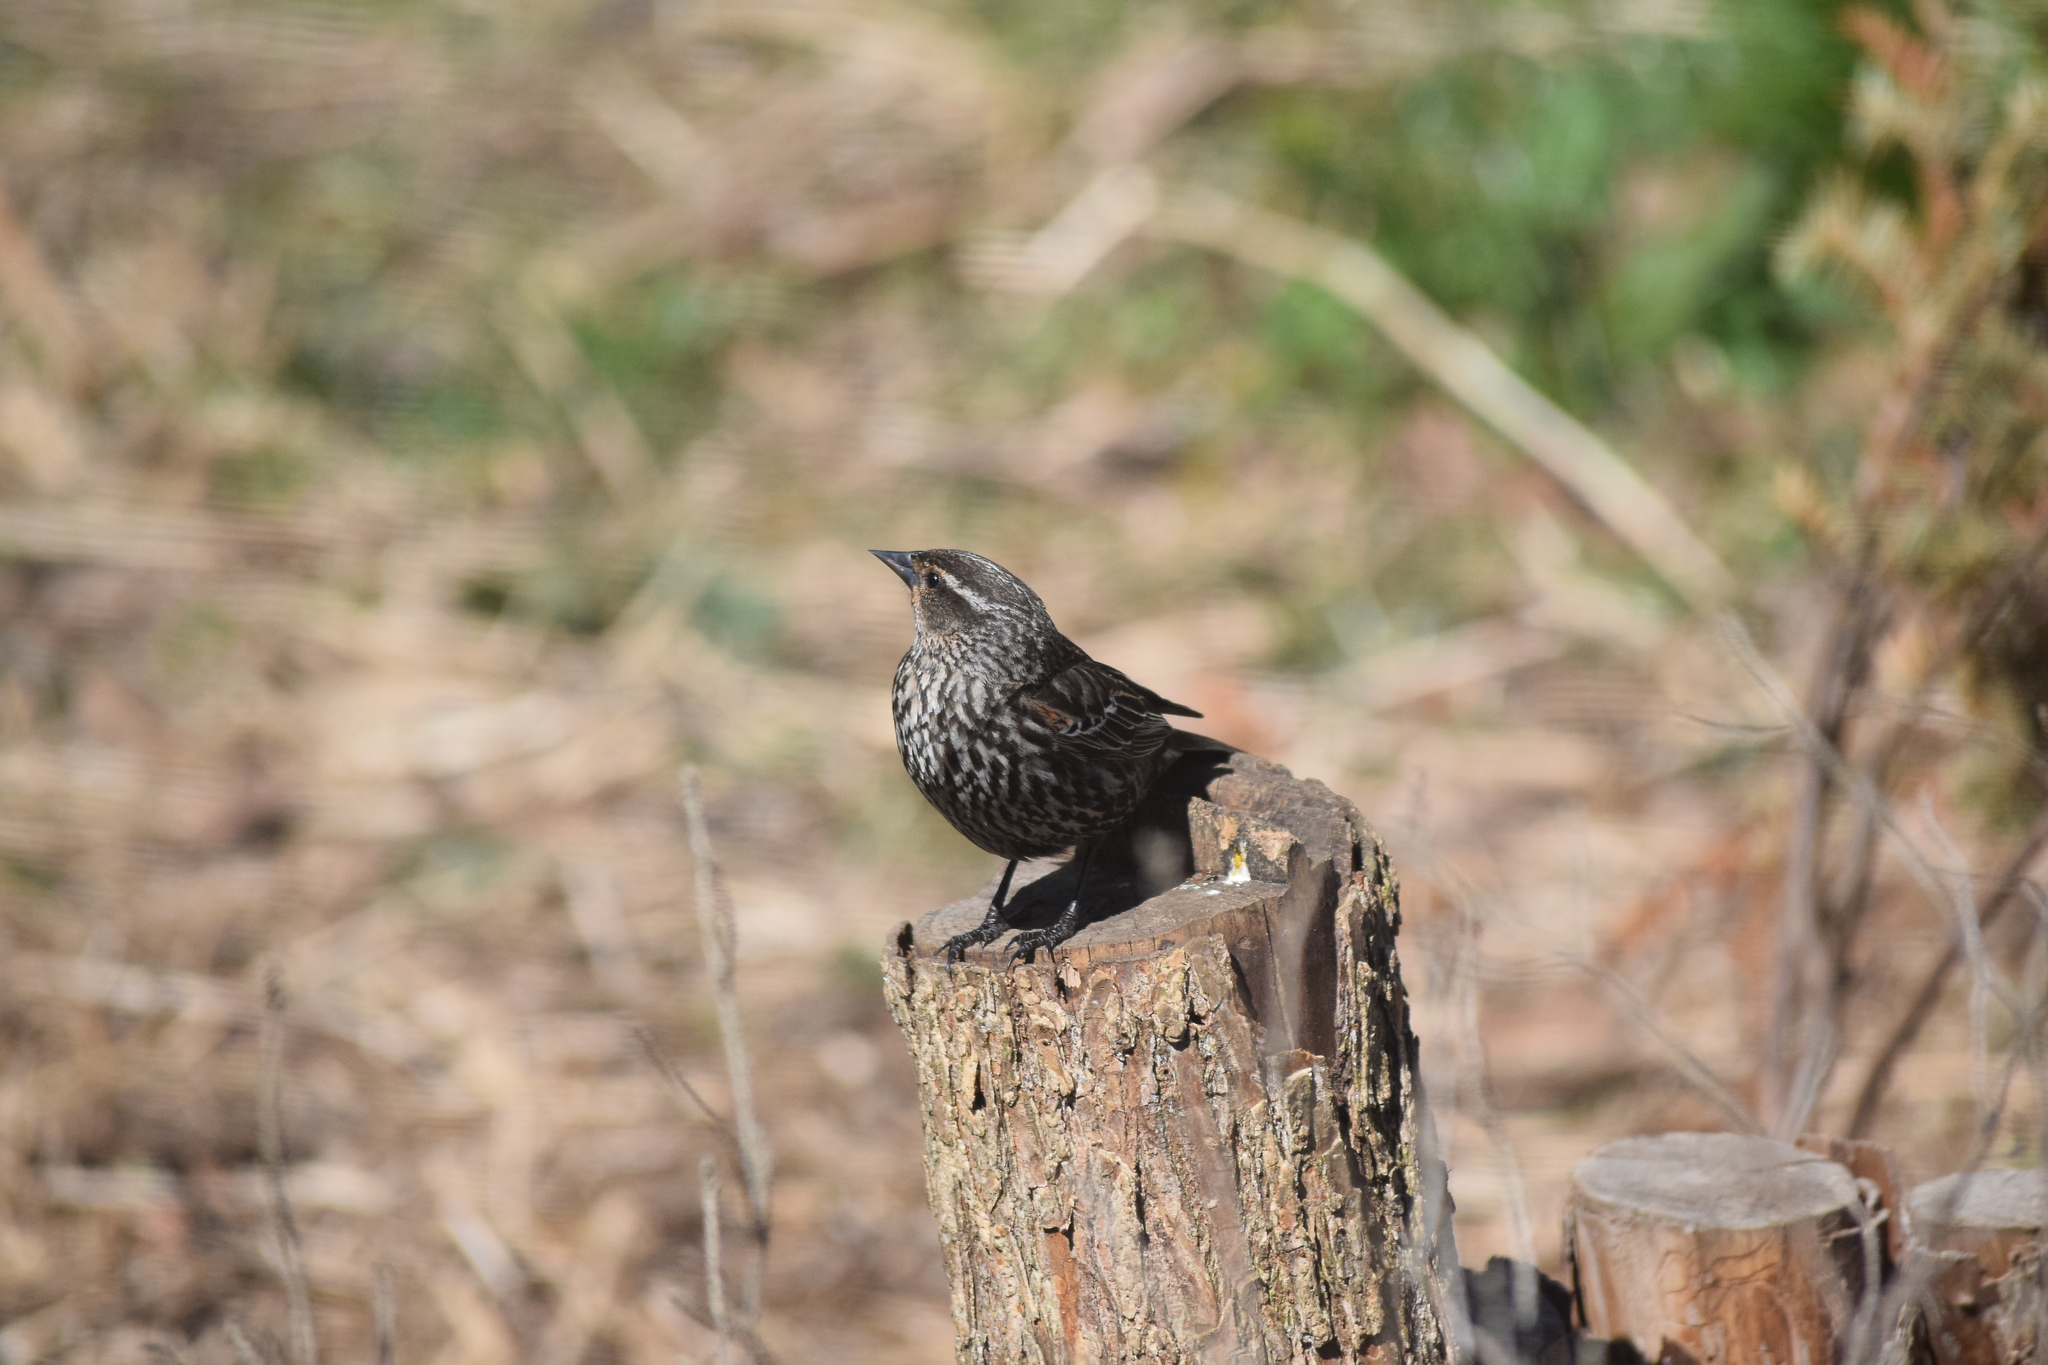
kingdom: Animalia
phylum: Chordata
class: Aves
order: Passeriformes
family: Icteridae
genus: Agelaius
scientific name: Agelaius phoeniceus
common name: Red-winged blackbird
